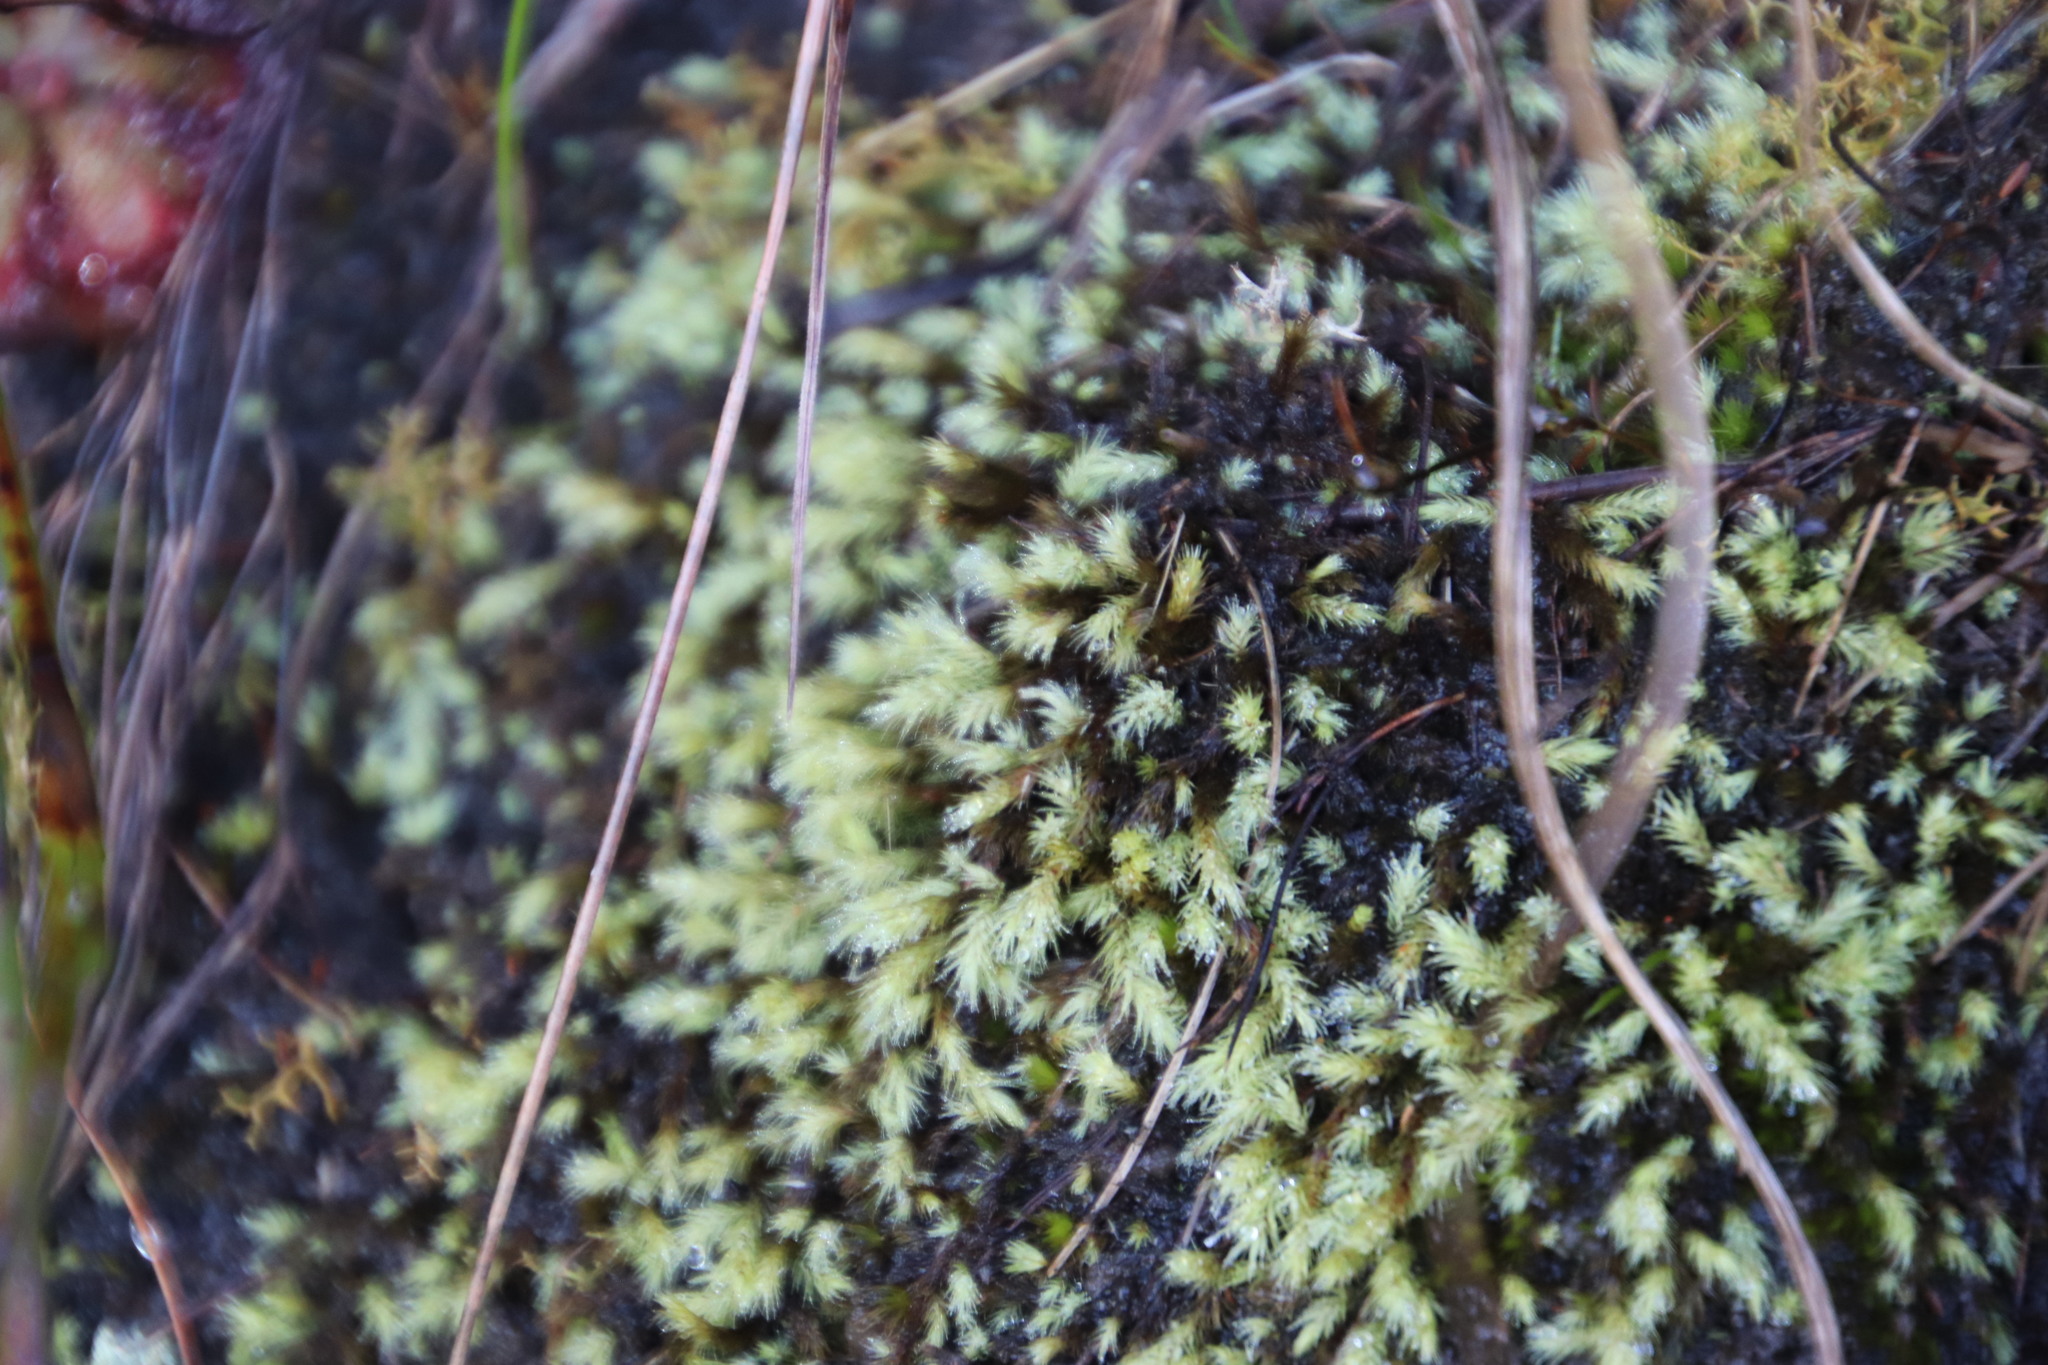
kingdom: Plantae
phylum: Bryophyta
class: Bryopsida
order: Bartramiales
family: Bartramiaceae
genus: Bartramia
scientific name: Bartramia capensis
